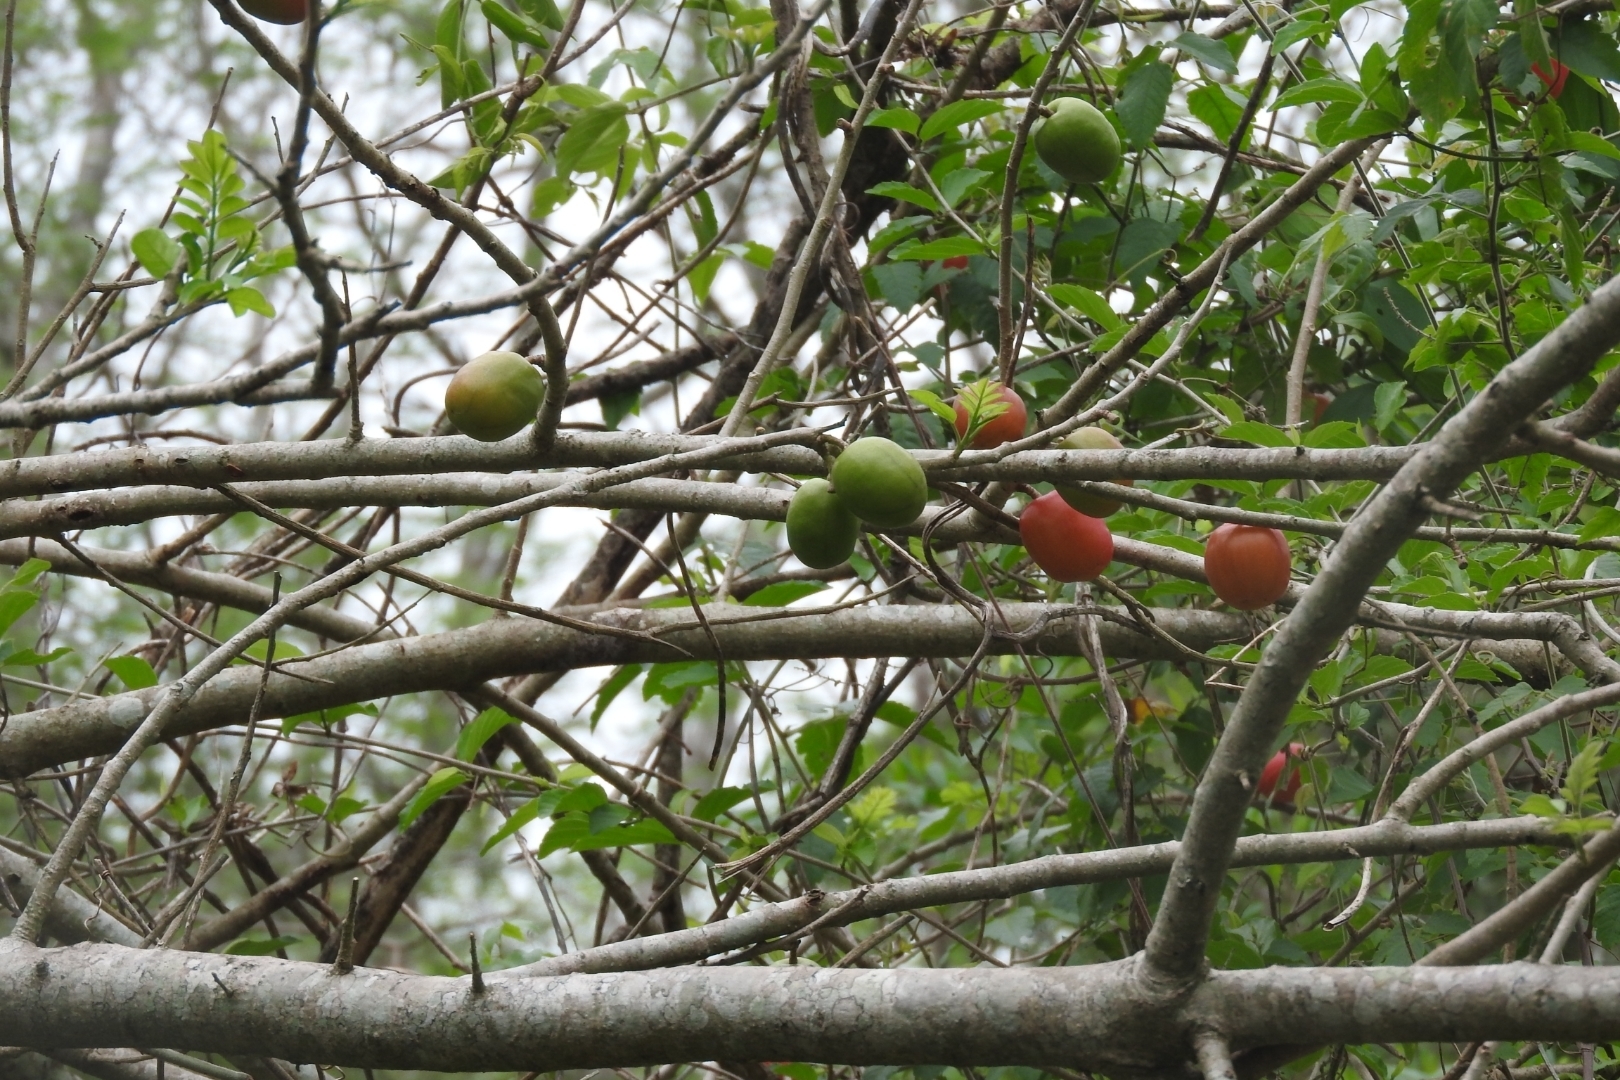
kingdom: Plantae
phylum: Tracheophyta
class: Magnoliopsida
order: Sapindales
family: Anacardiaceae
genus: Spondias
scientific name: Spondias purpurea
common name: Purple mombin
